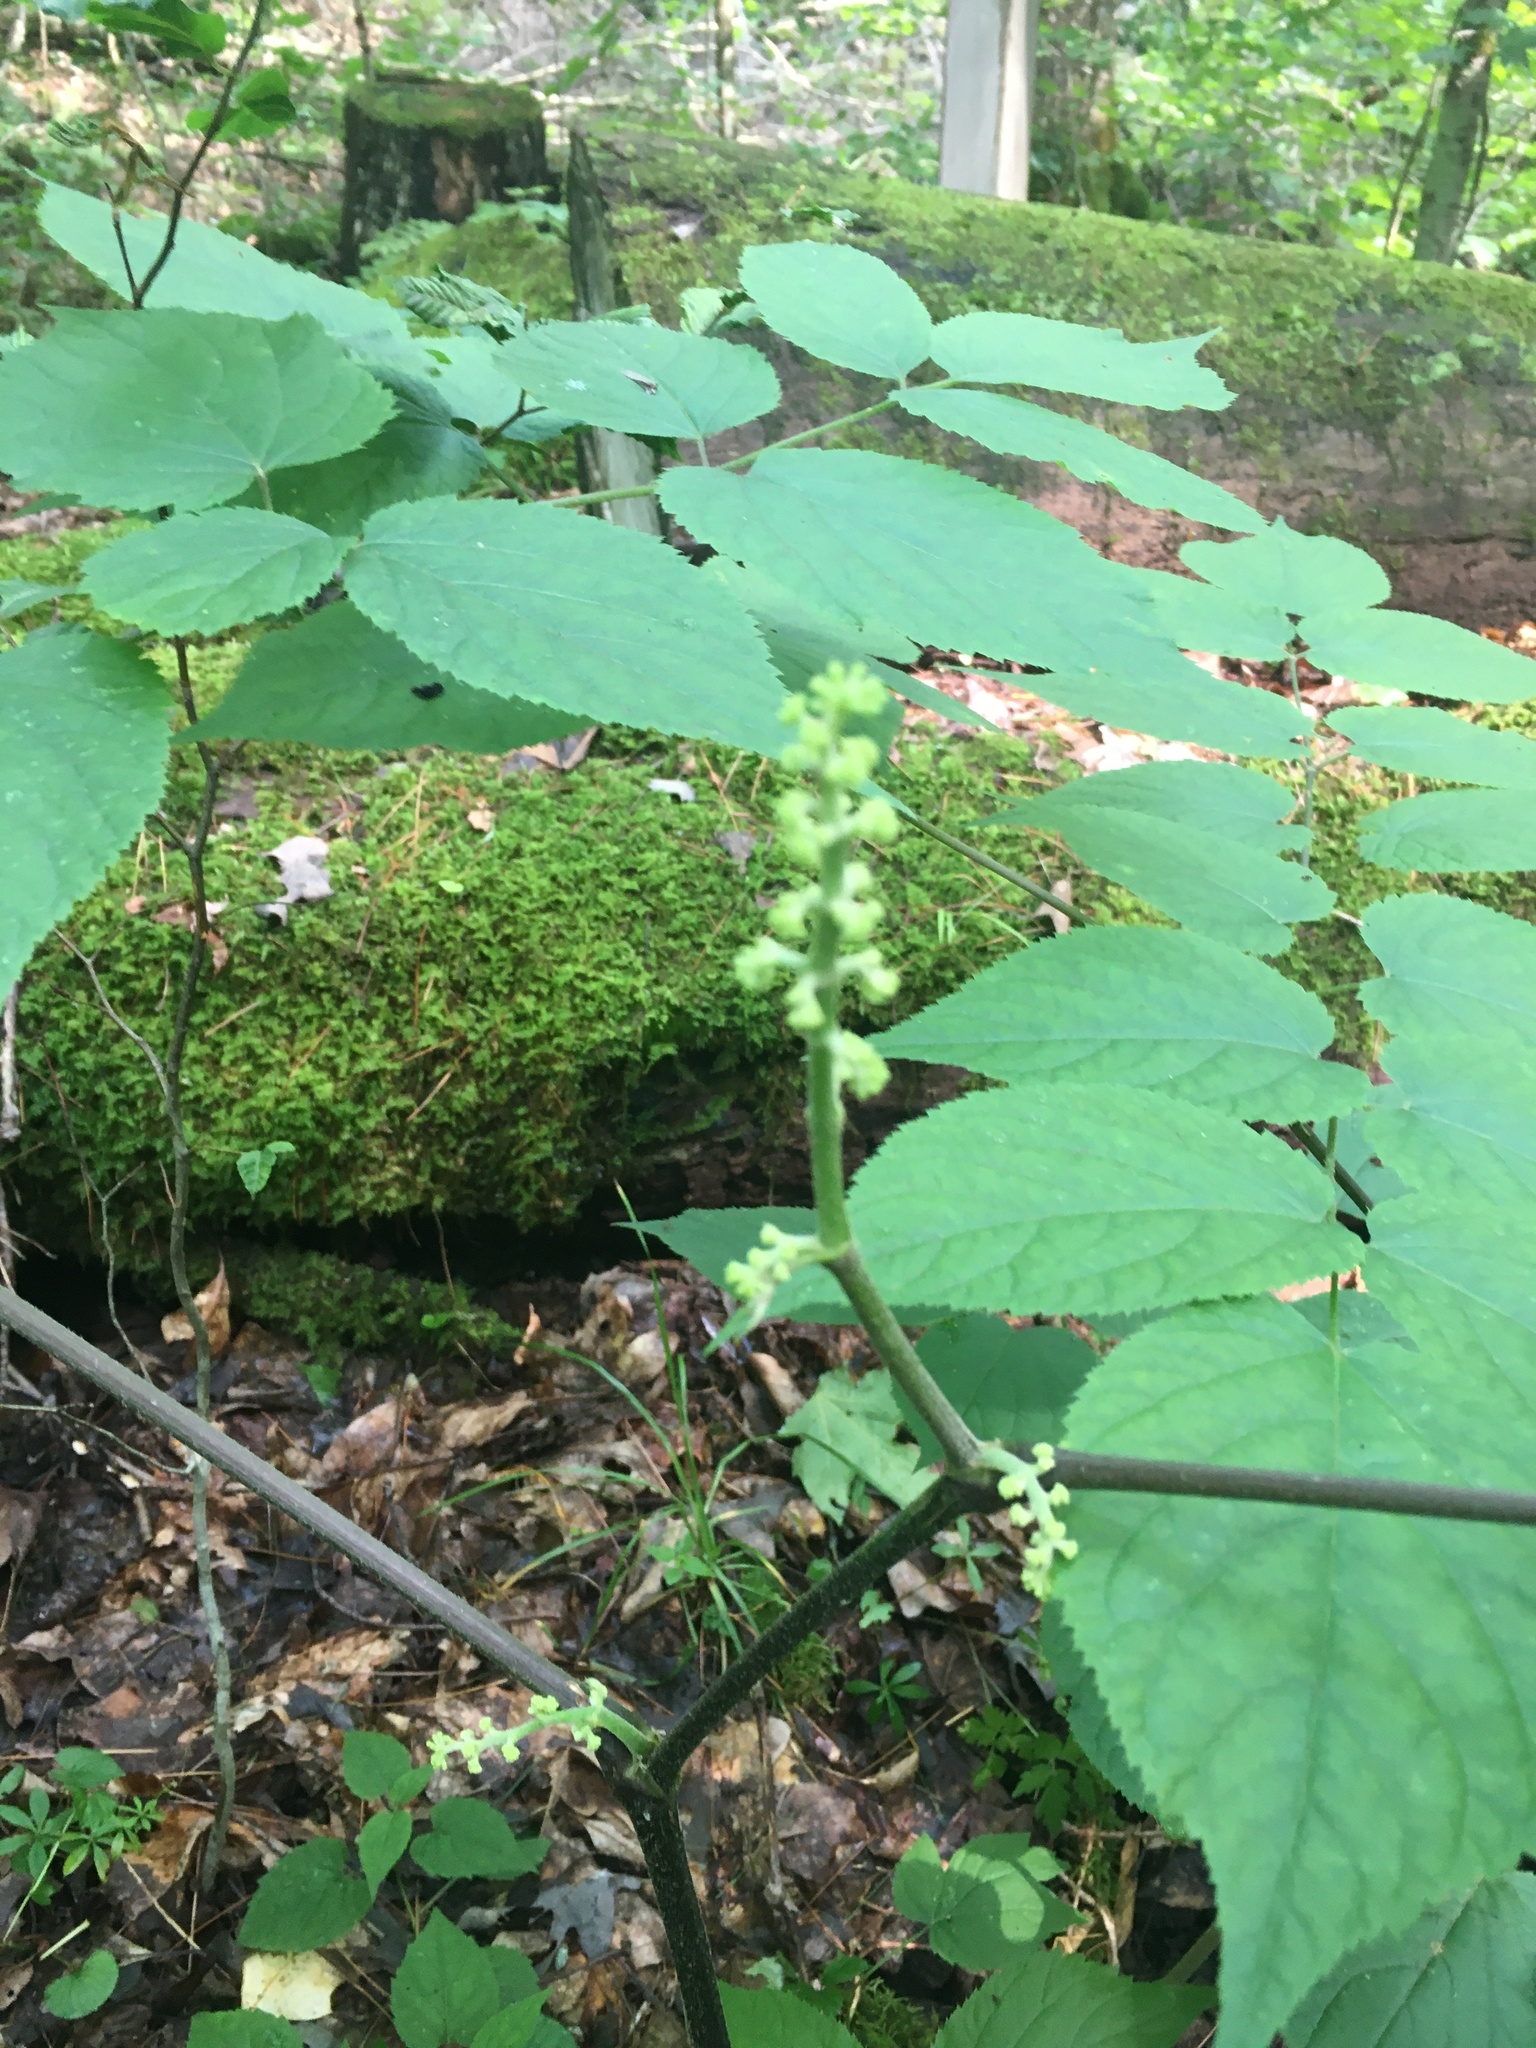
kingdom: Plantae
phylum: Tracheophyta
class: Magnoliopsida
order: Apiales
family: Araliaceae
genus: Aralia
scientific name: Aralia racemosa
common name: American-spikenard
